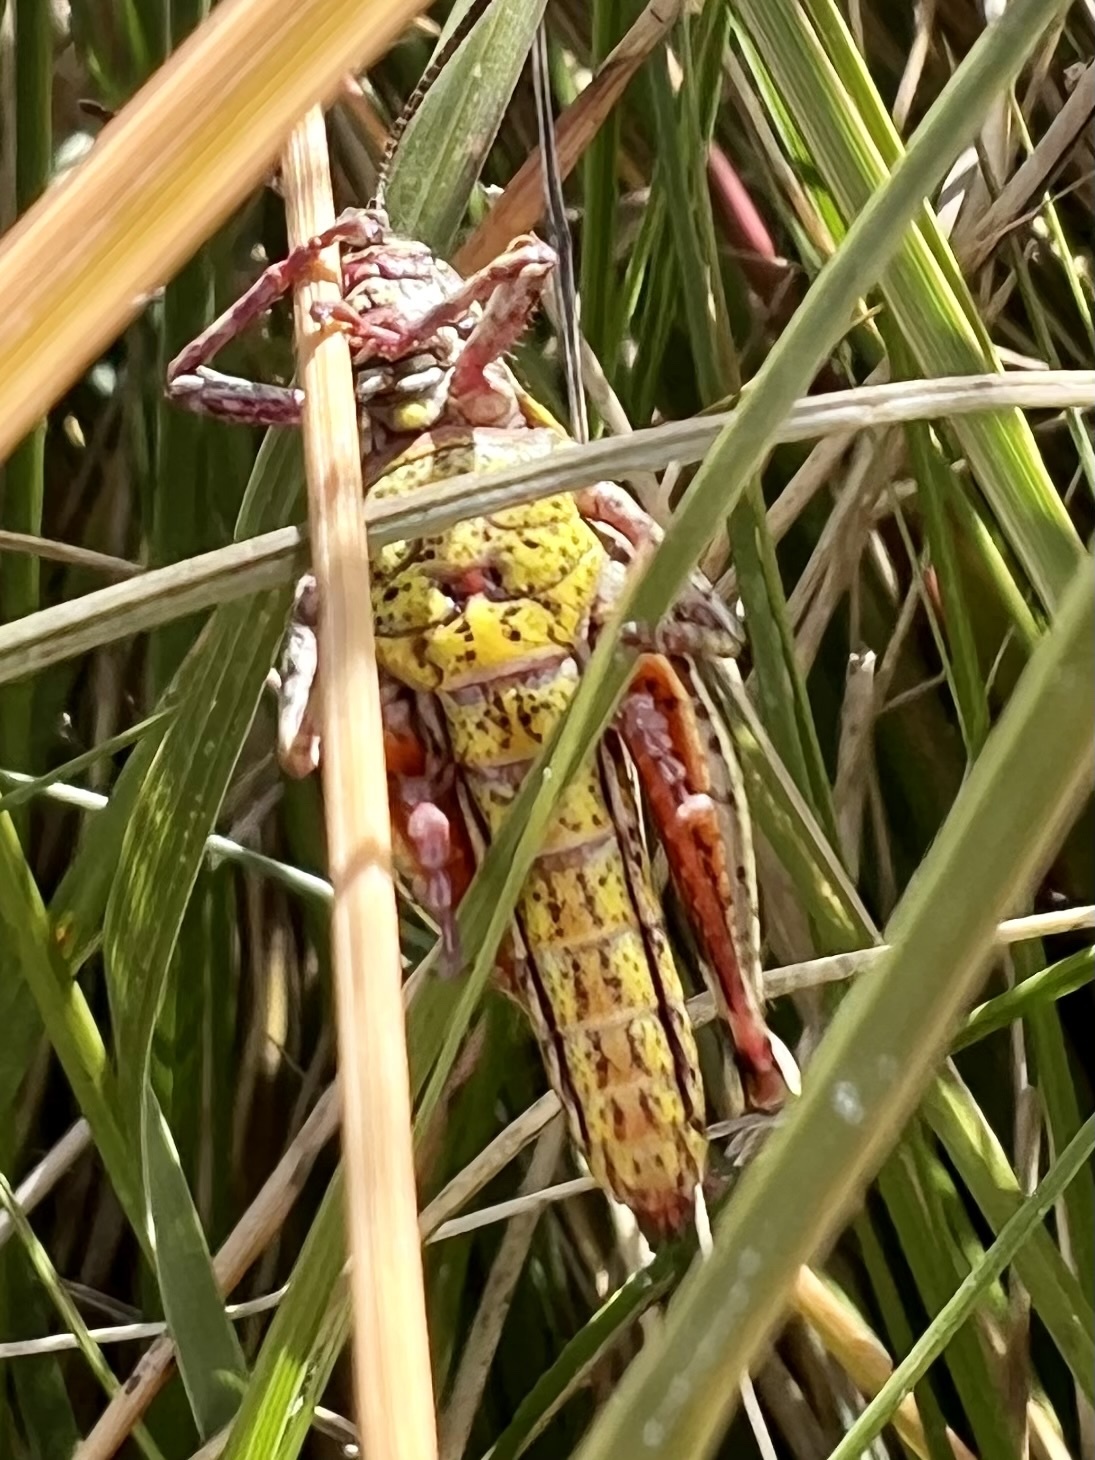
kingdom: Animalia
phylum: Arthropoda
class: Insecta
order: Orthoptera
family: Acrididae
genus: Sigaus
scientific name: Sigaus australis
